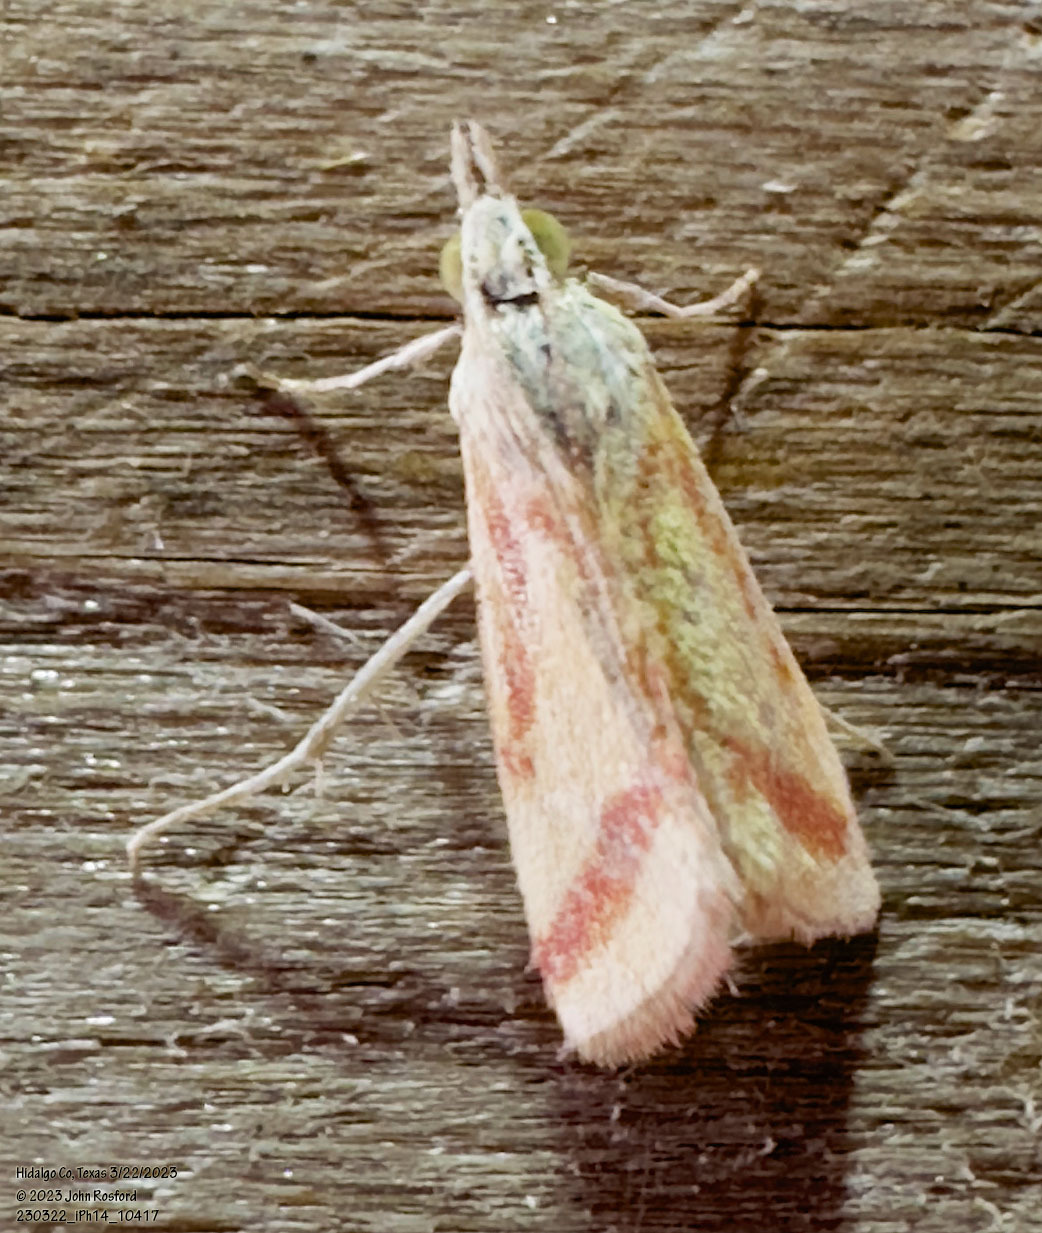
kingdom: Animalia
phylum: Arthropoda
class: Insecta
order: Lepidoptera
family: Crambidae
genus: Microtheoris
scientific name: Microtheoris vibicalis
